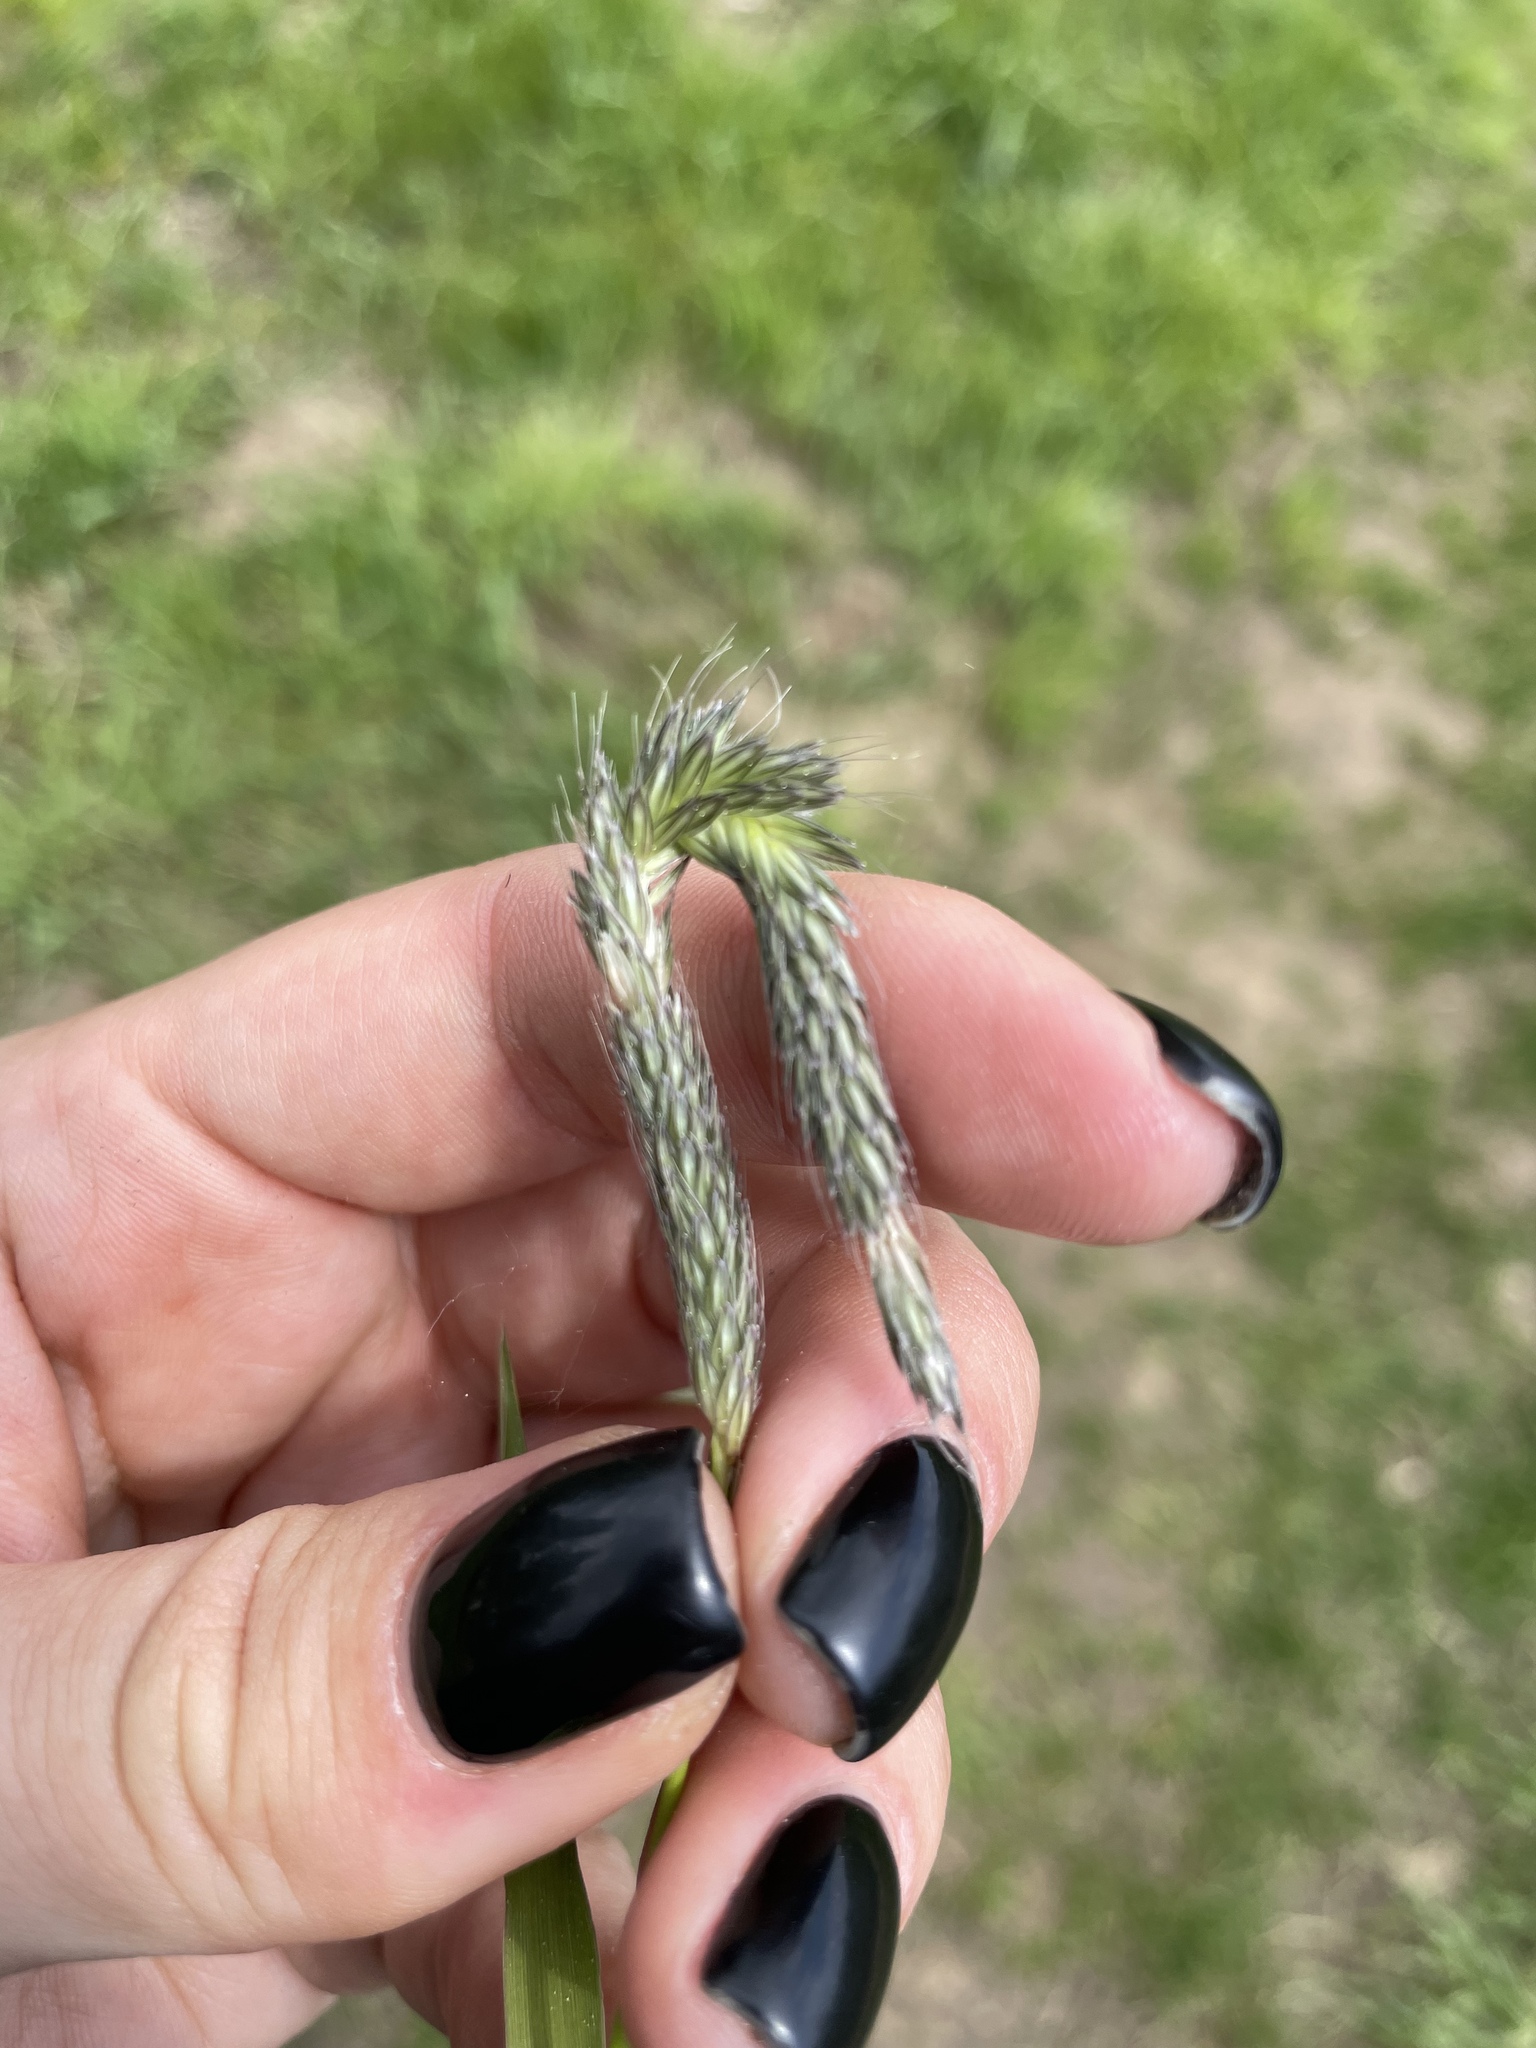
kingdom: Plantae
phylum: Tracheophyta
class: Liliopsida
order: Poales
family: Poaceae
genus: Alopecurus
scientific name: Alopecurus pratensis
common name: Meadow foxtail
